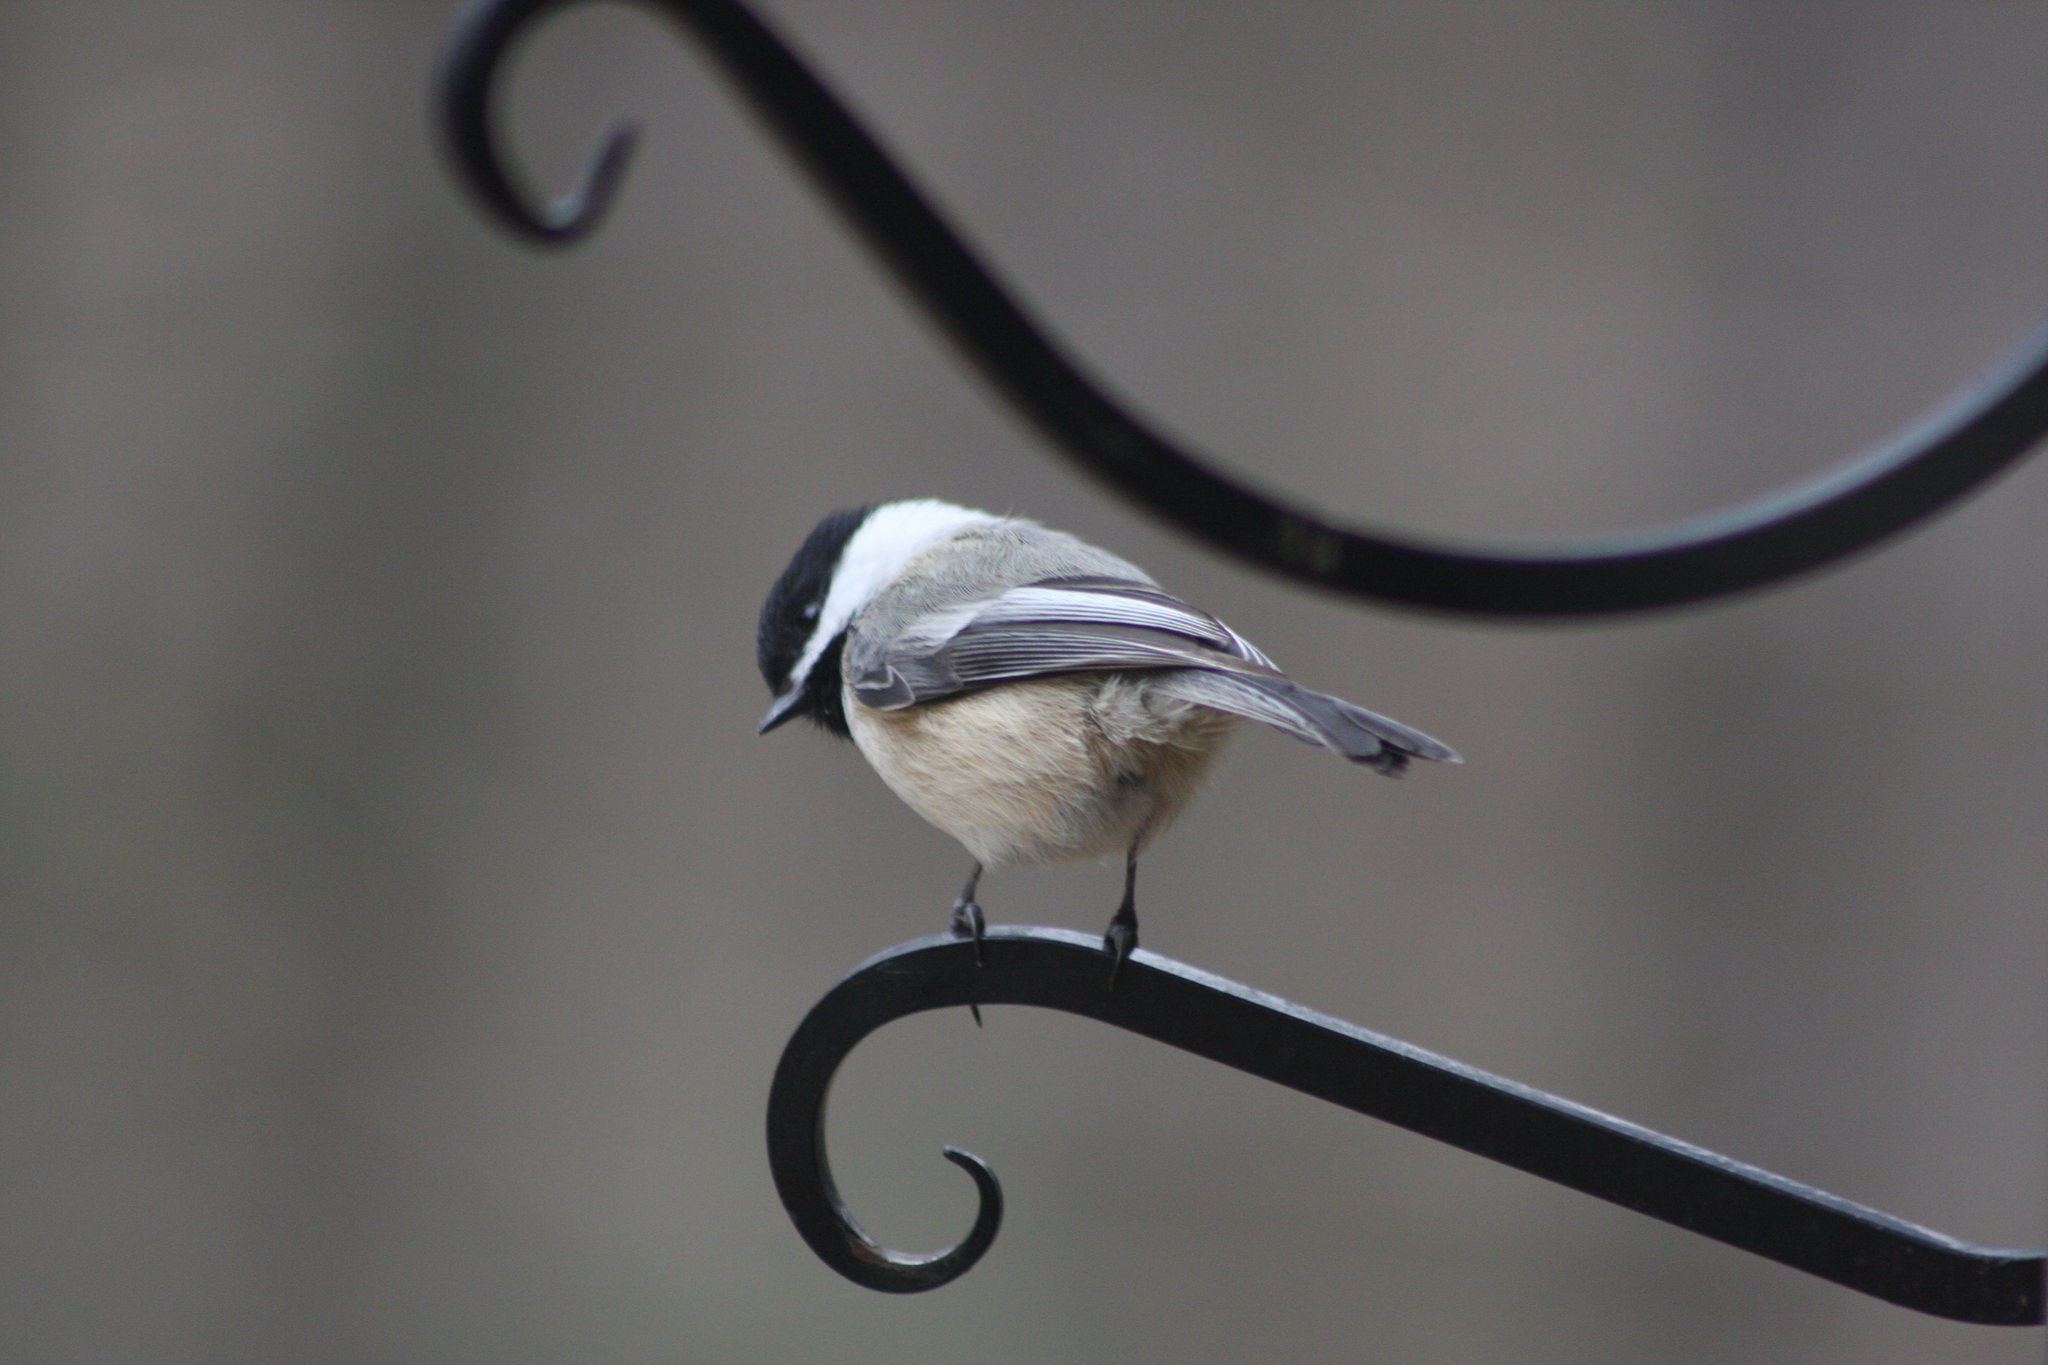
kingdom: Animalia
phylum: Chordata
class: Aves
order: Passeriformes
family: Paridae
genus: Poecile
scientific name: Poecile atricapillus
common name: Black-capped chickadee
